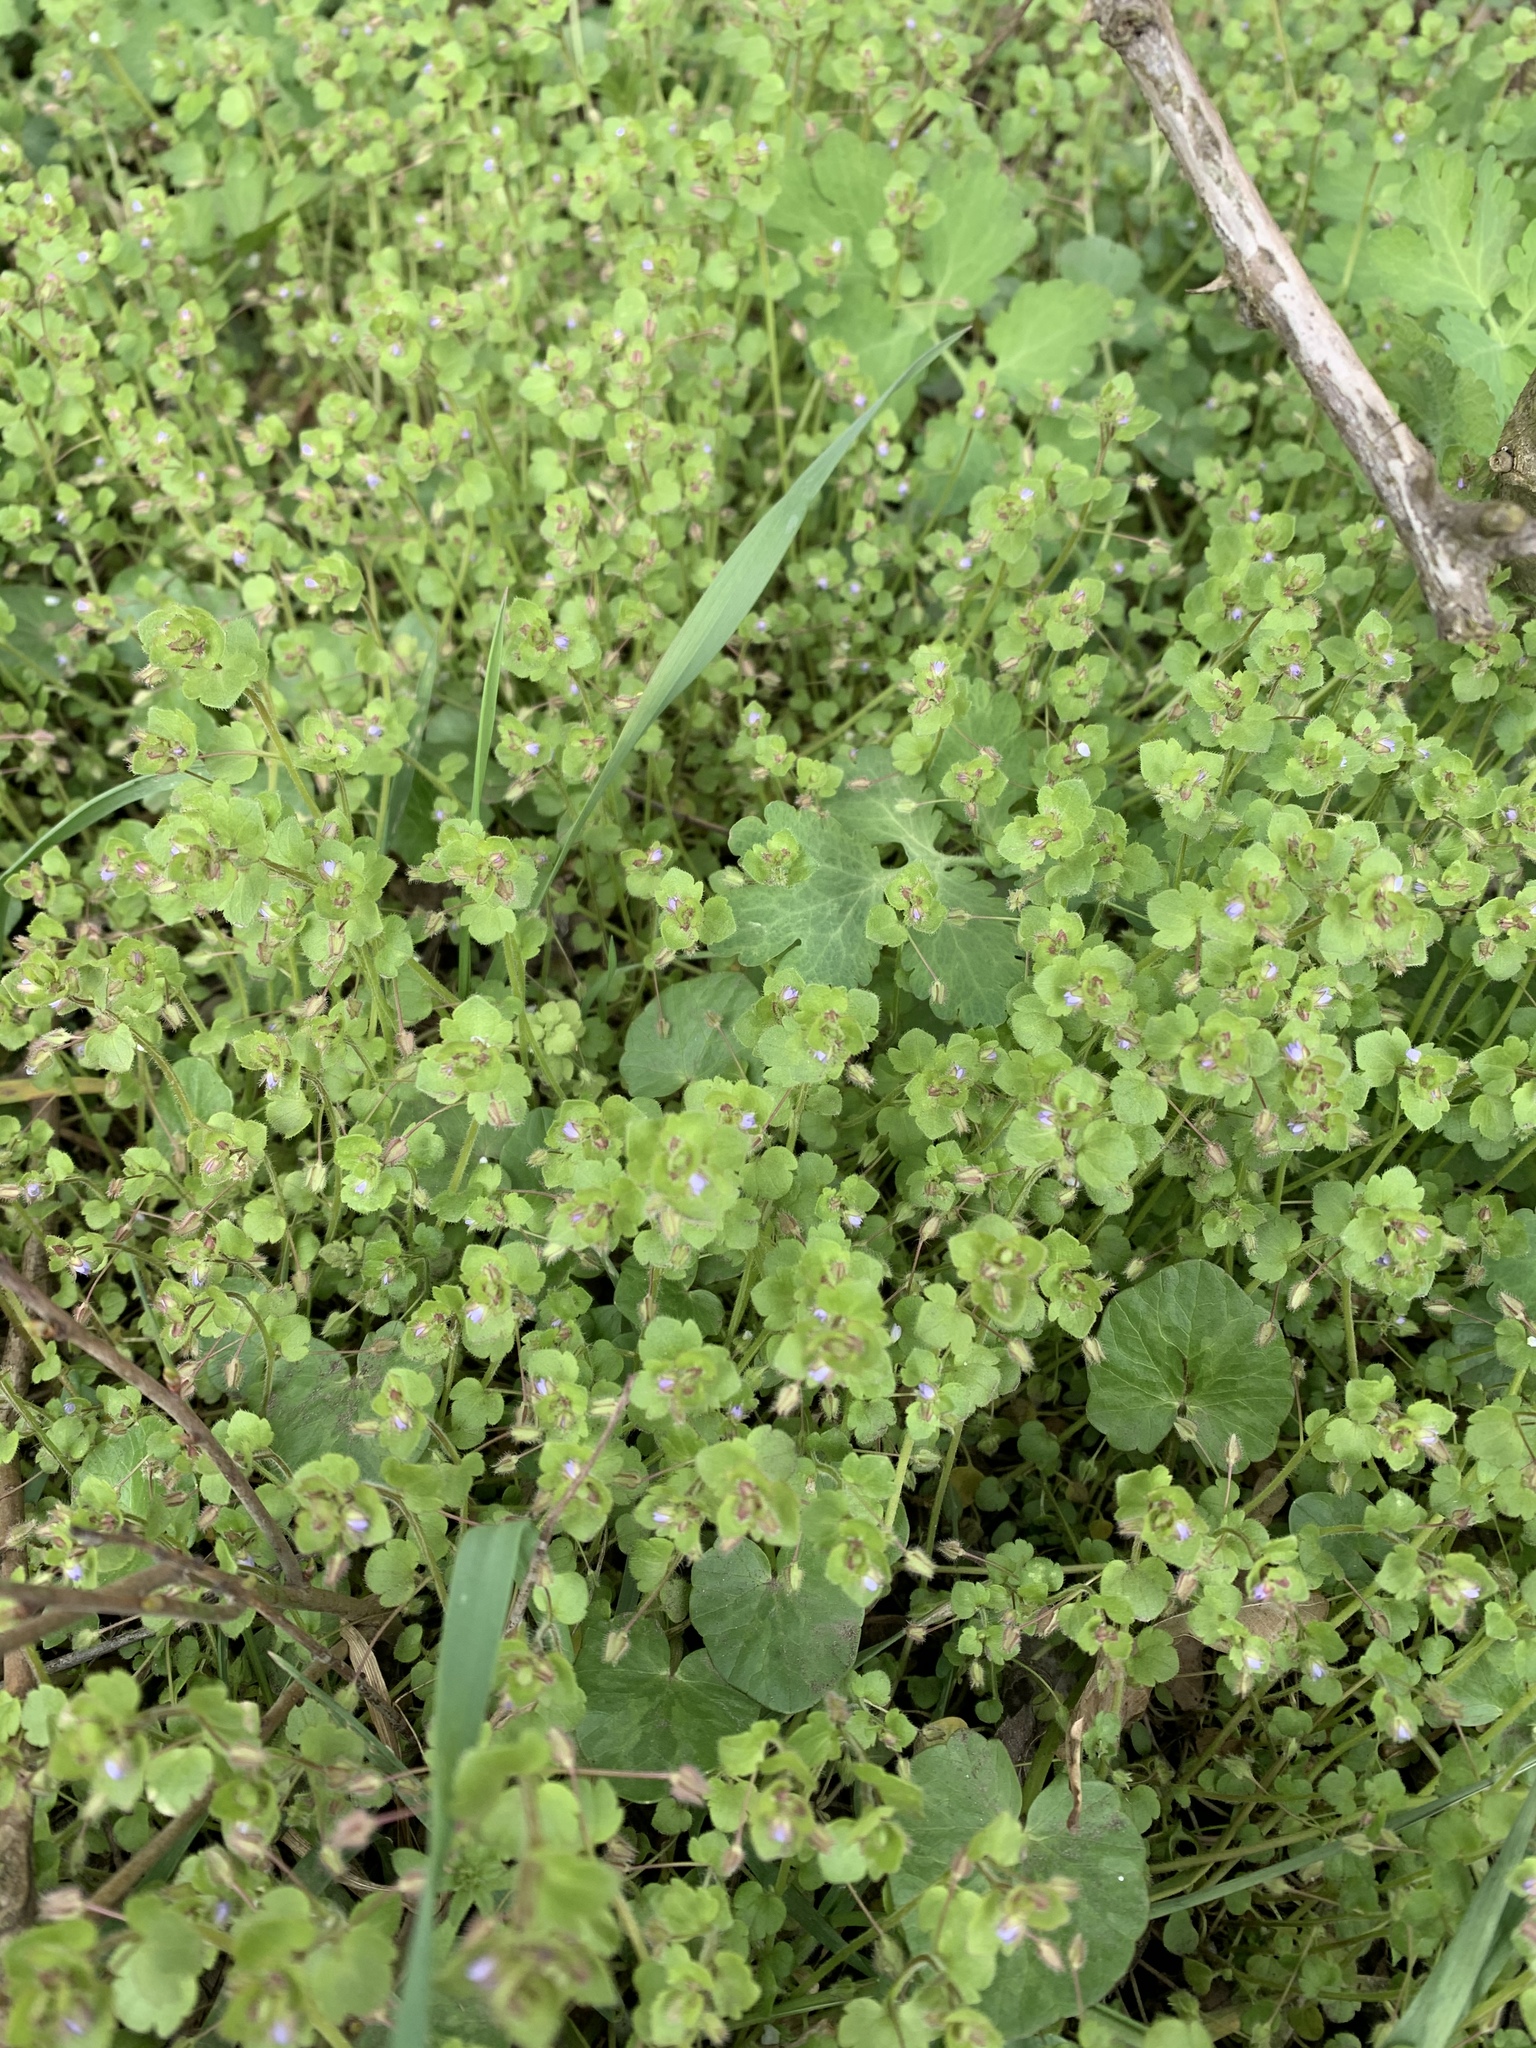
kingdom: Plantae
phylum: Tracheophyta
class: Magnoliopsida
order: Lamiales
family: Plantaginaceae
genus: Veronica
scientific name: Veronica sublobata
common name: False ivy-leaved speedwell
